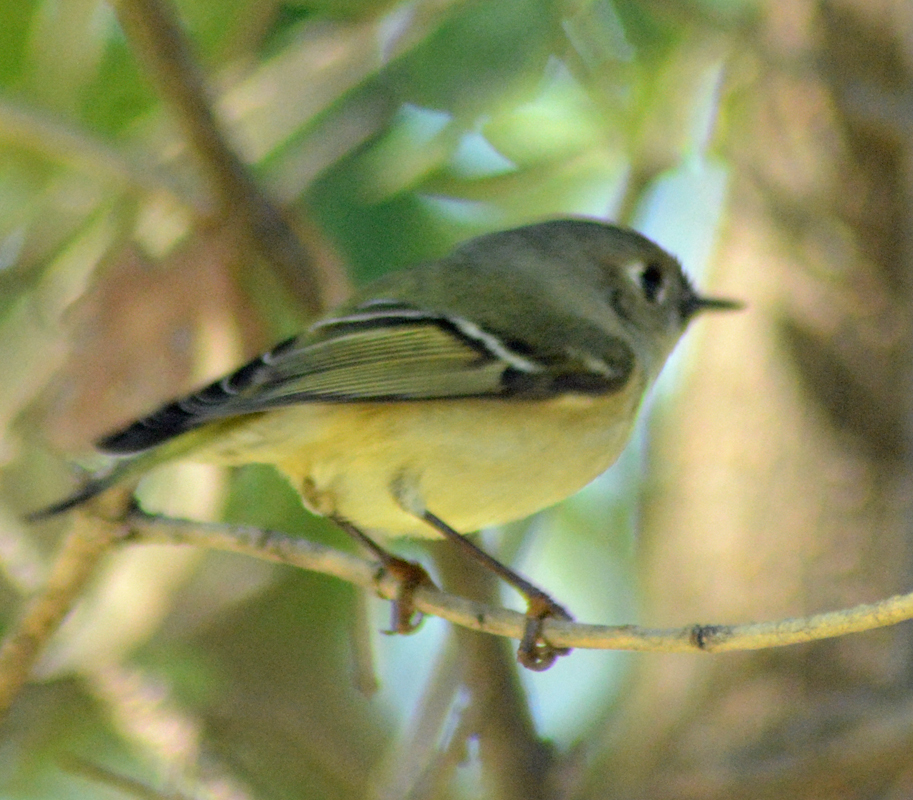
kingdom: Animalia
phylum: Chordata
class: Aves
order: Passeriformes
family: Regulidae
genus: Regulus
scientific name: Regulus calendula
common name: Ruby-crowned kinglet
